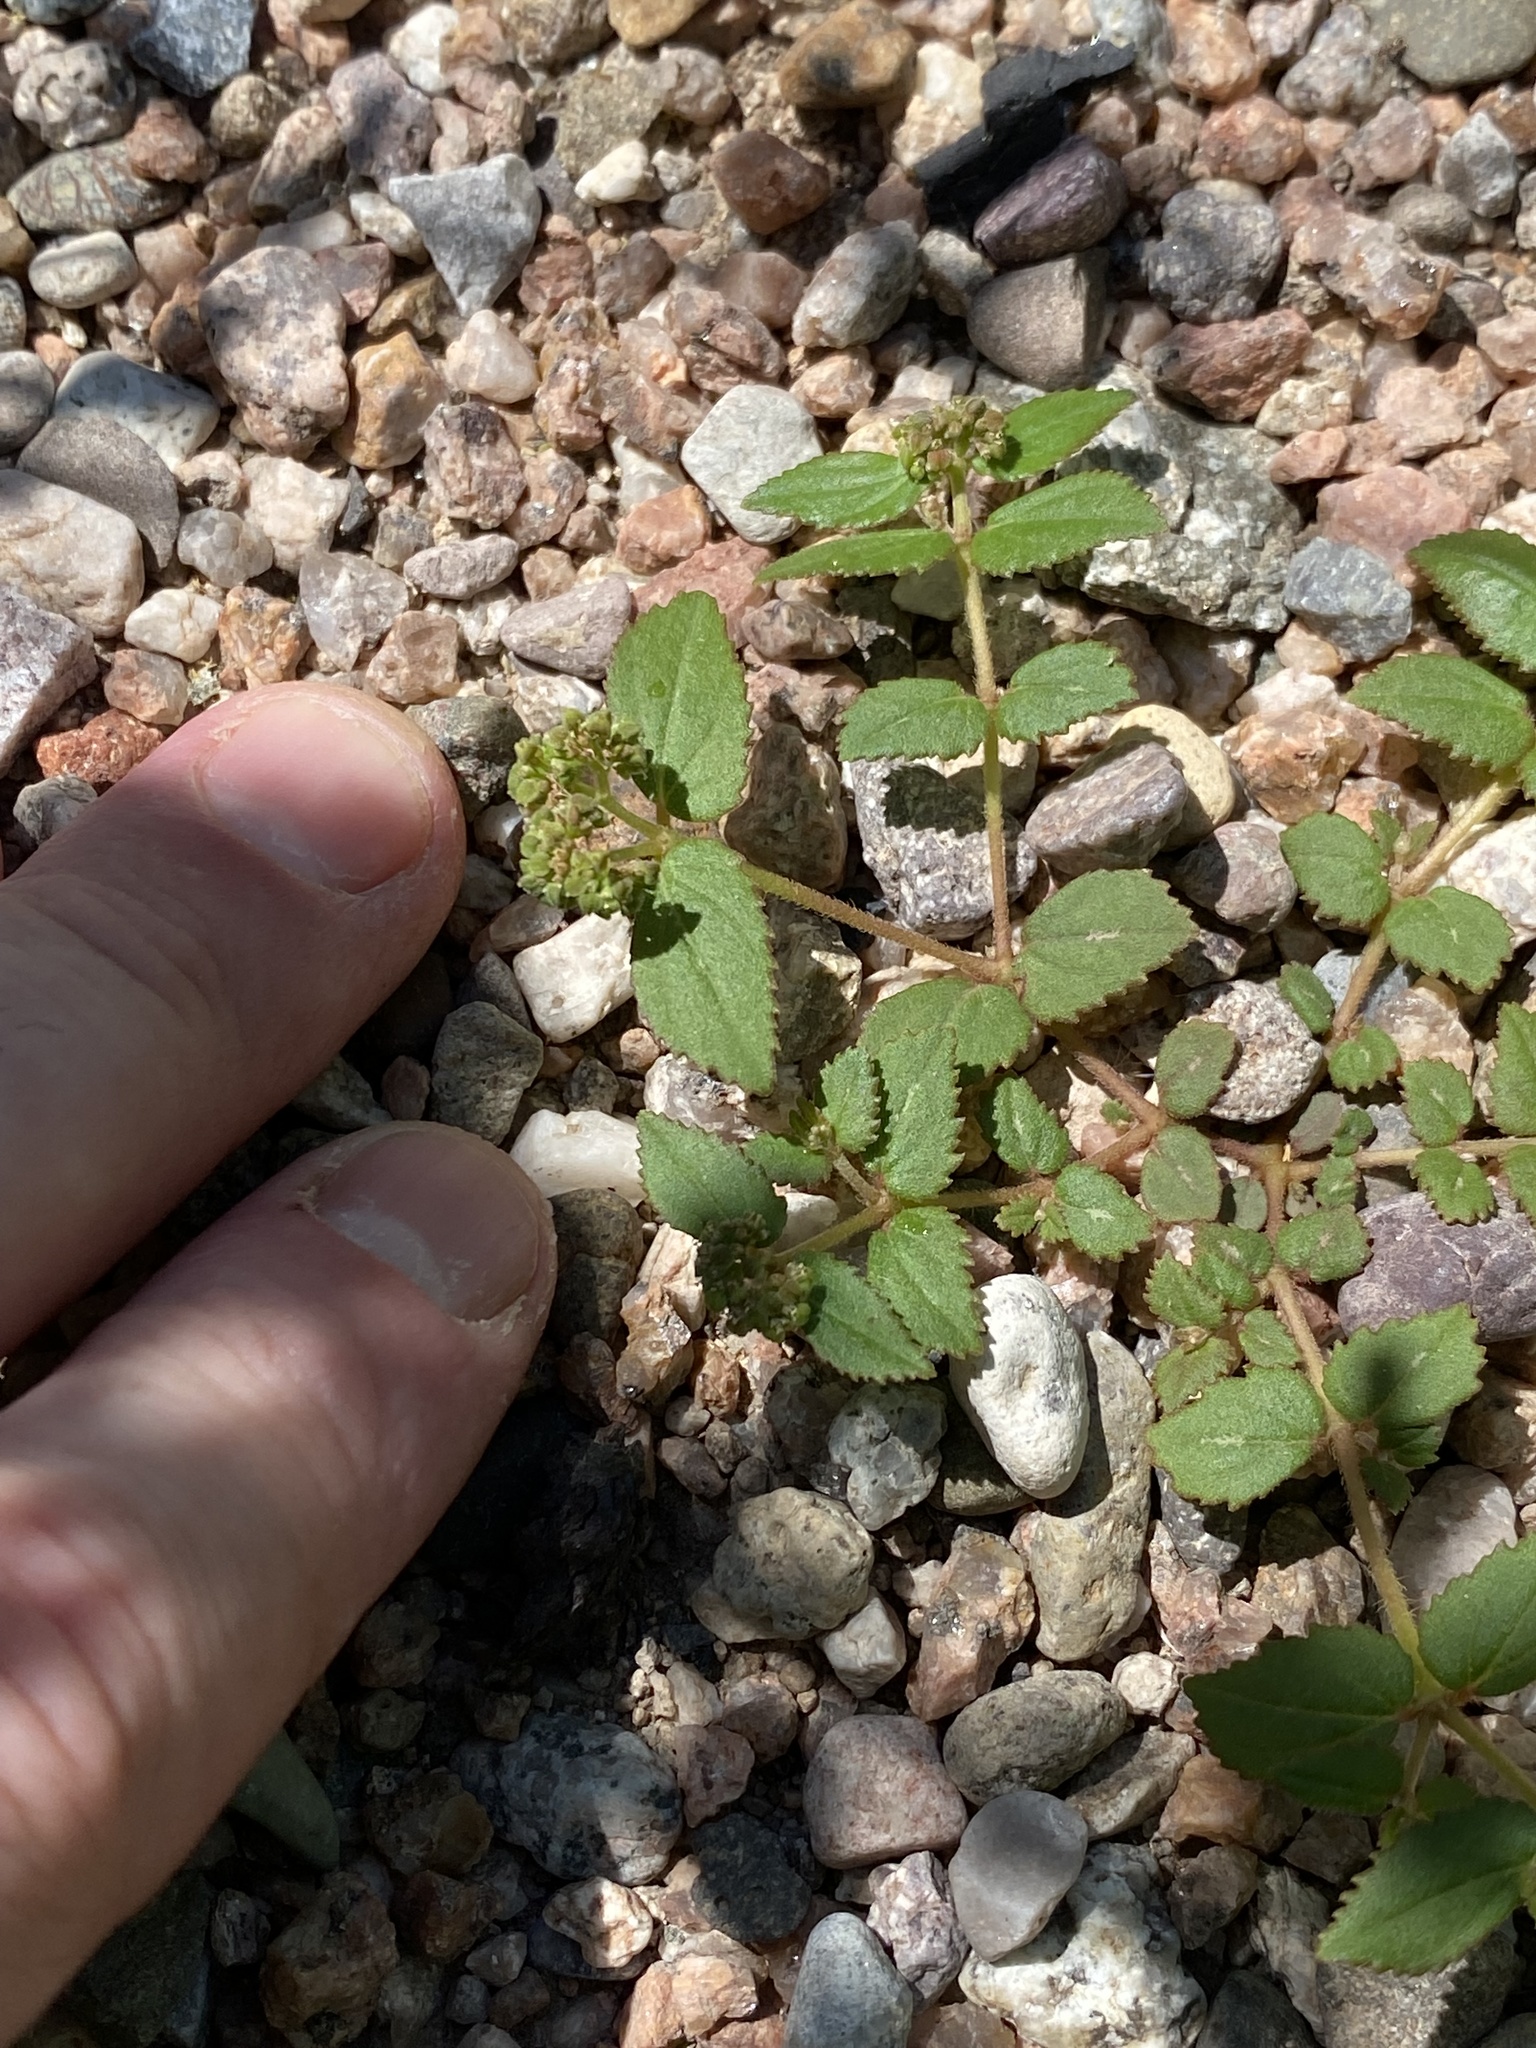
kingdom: Plantae
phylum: Tracheophyta
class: Magnoliopsida
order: Malpighiales
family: Euphorbiaceae
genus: Euphorbia
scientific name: Euphorbia ophthalmica
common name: Florida hammock sandmat
